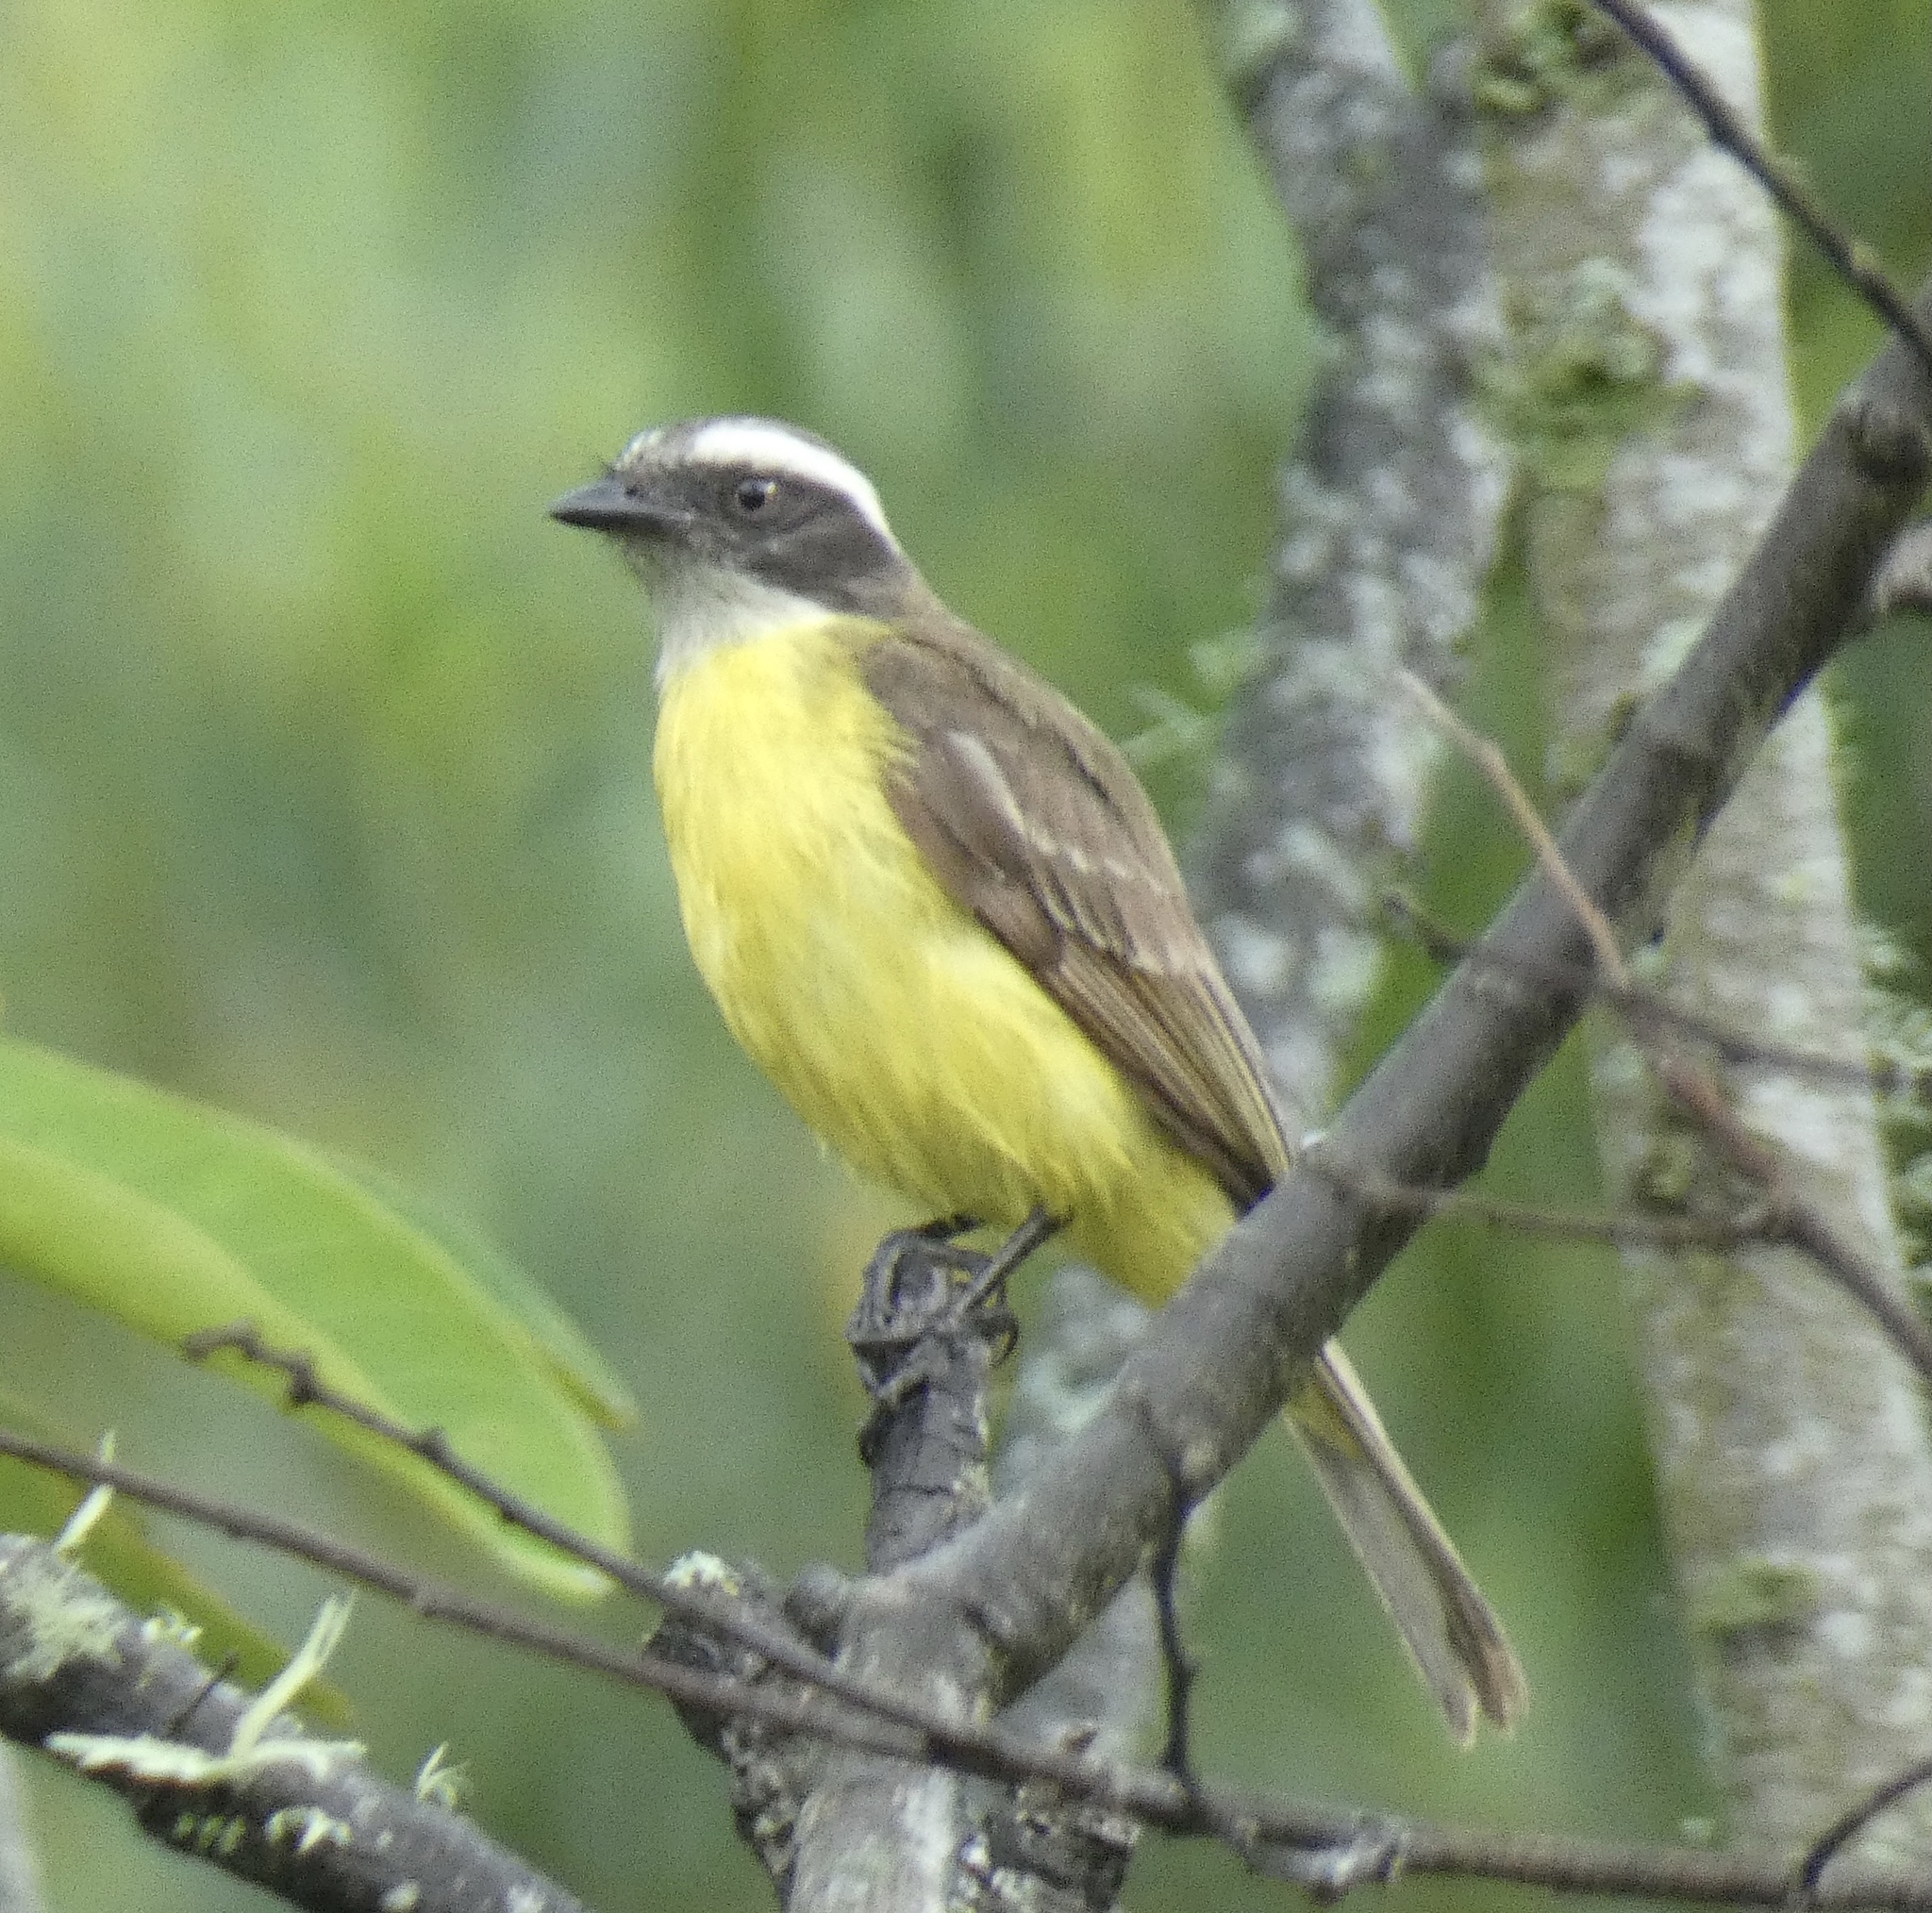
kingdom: Animalia
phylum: Chordata
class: Aves
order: Passeriformes
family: Tyrannidae
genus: Myiozetetes
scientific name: Myiozetetes similis
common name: Social flycatcher
